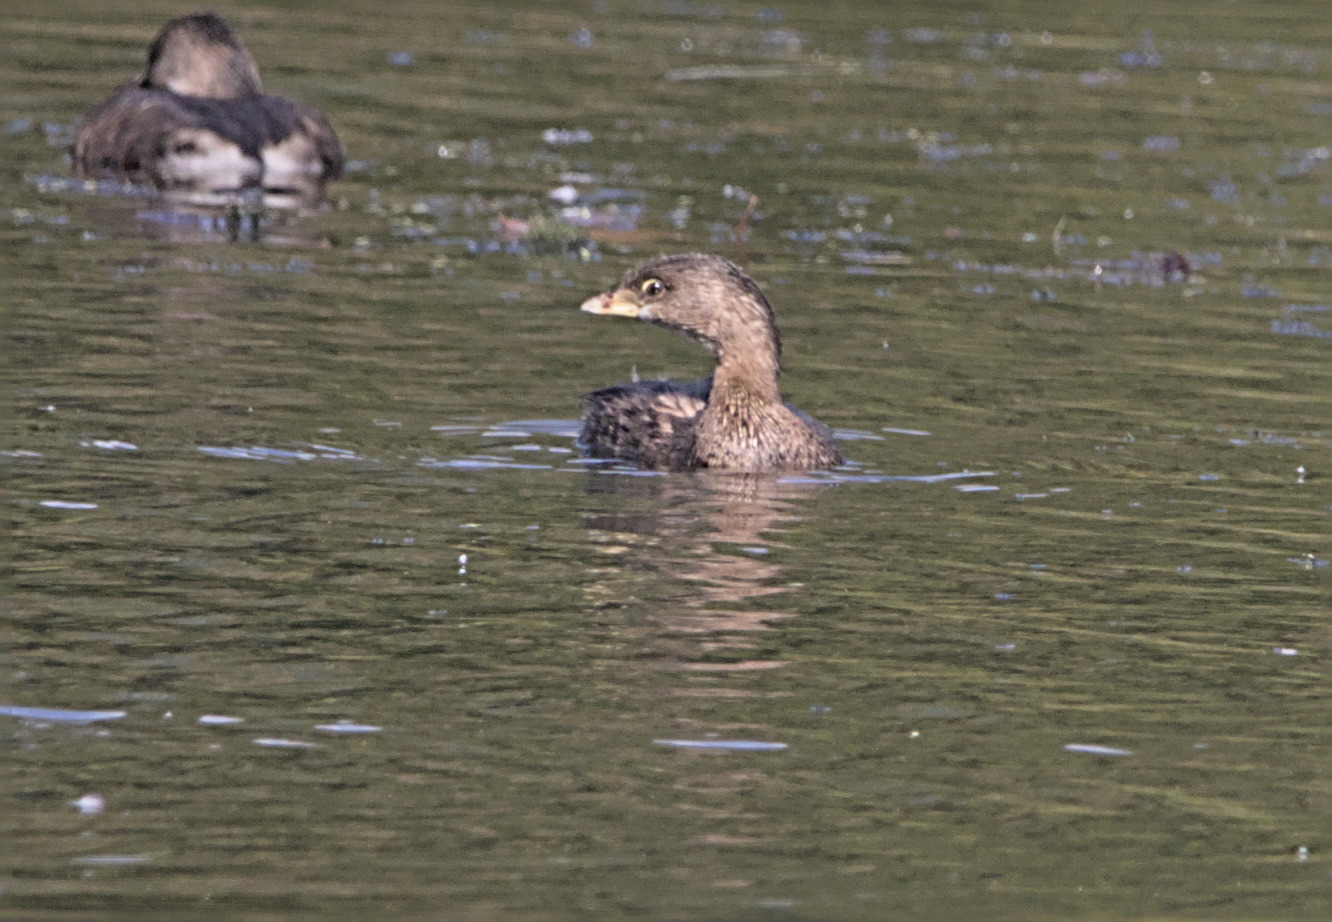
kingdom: Animalia
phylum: Chordata
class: Aves
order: Podicipediformes
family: Podicipedidae
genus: Podilymbus
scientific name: Podilymbus podiceps
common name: Pied-billed grebe
